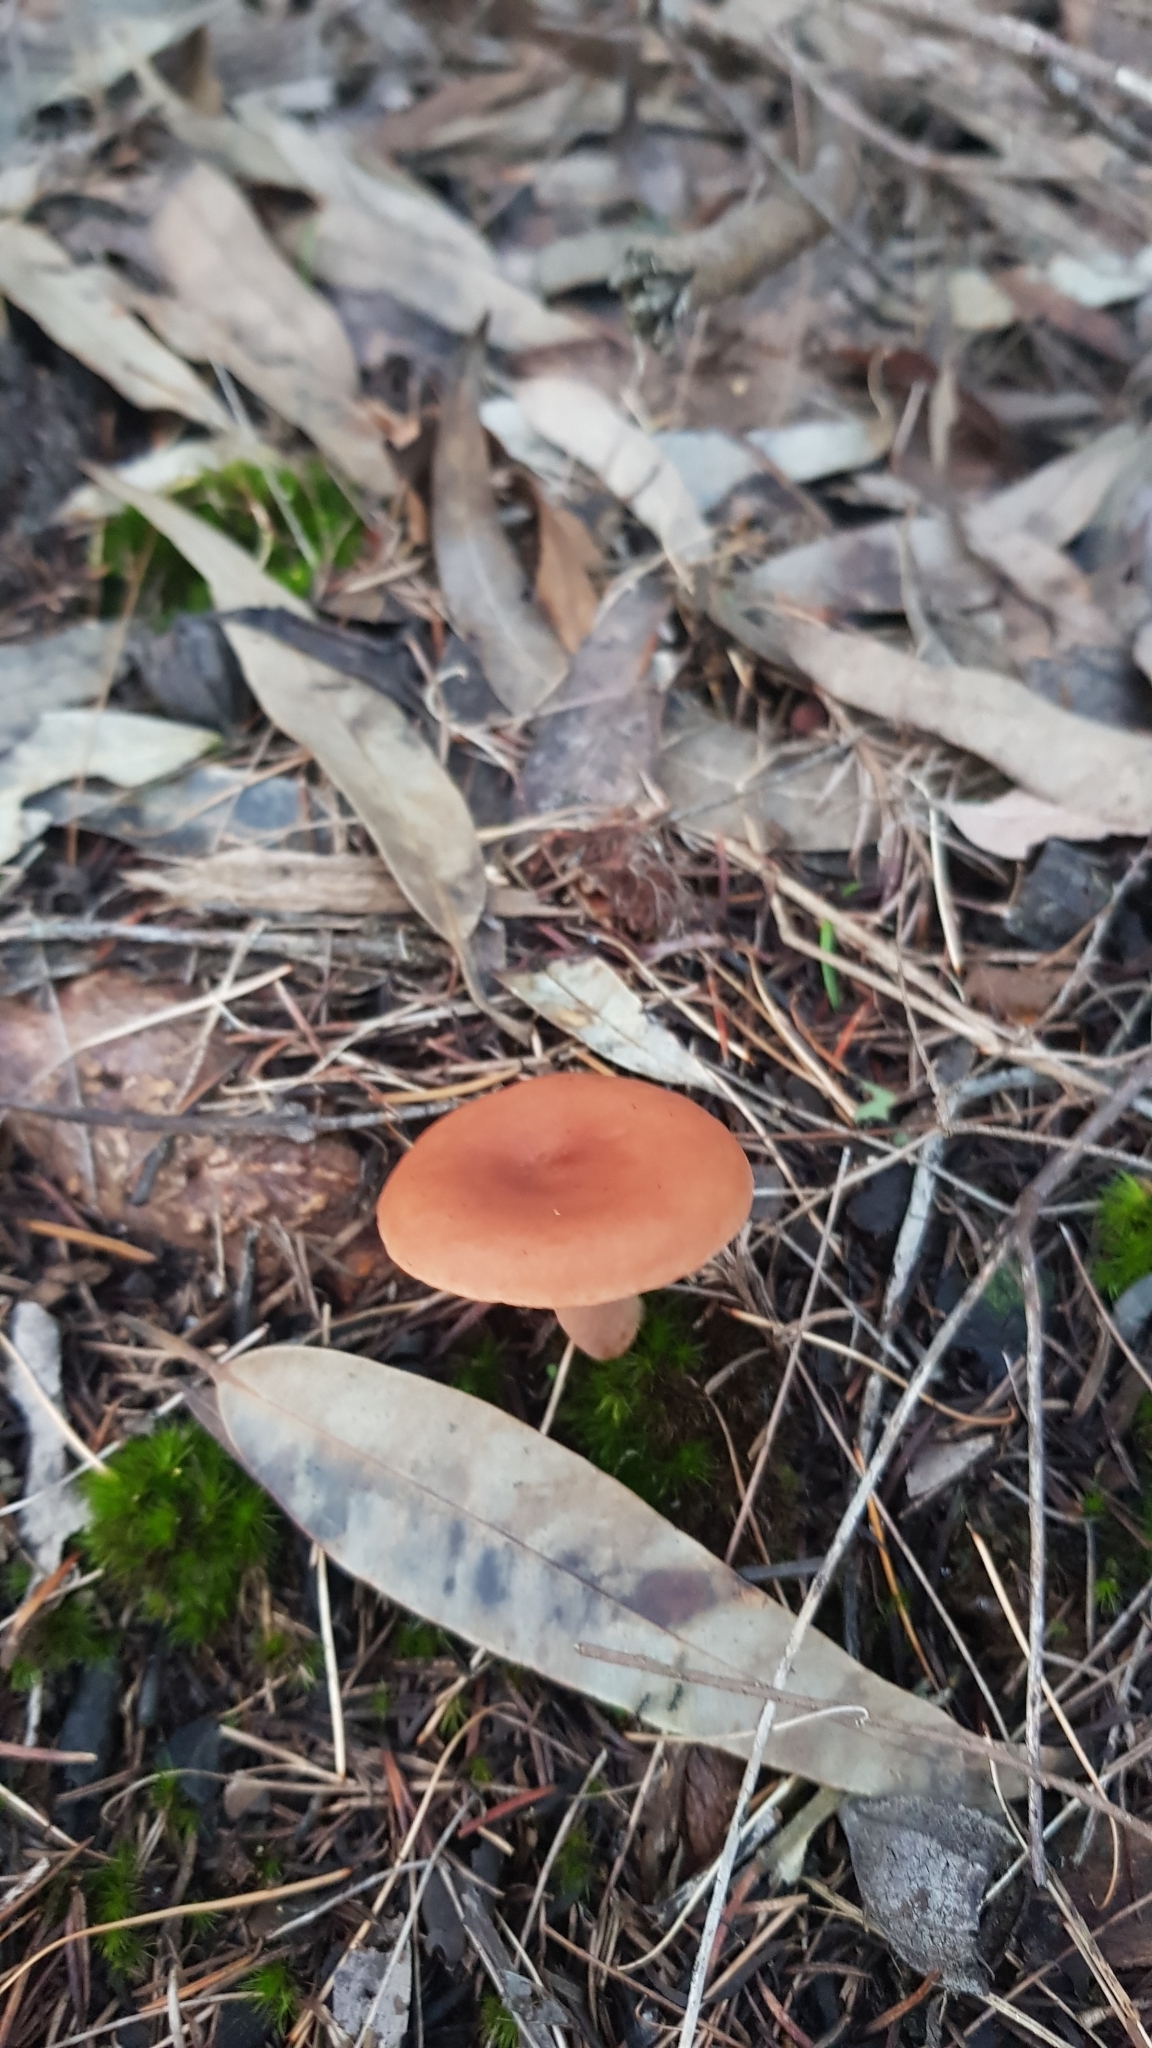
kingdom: Fungi
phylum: Basidiomycota
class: Agaricomycetes
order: Russulales
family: Russulaceae
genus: Lactarius
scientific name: Lactarius eucalypti
